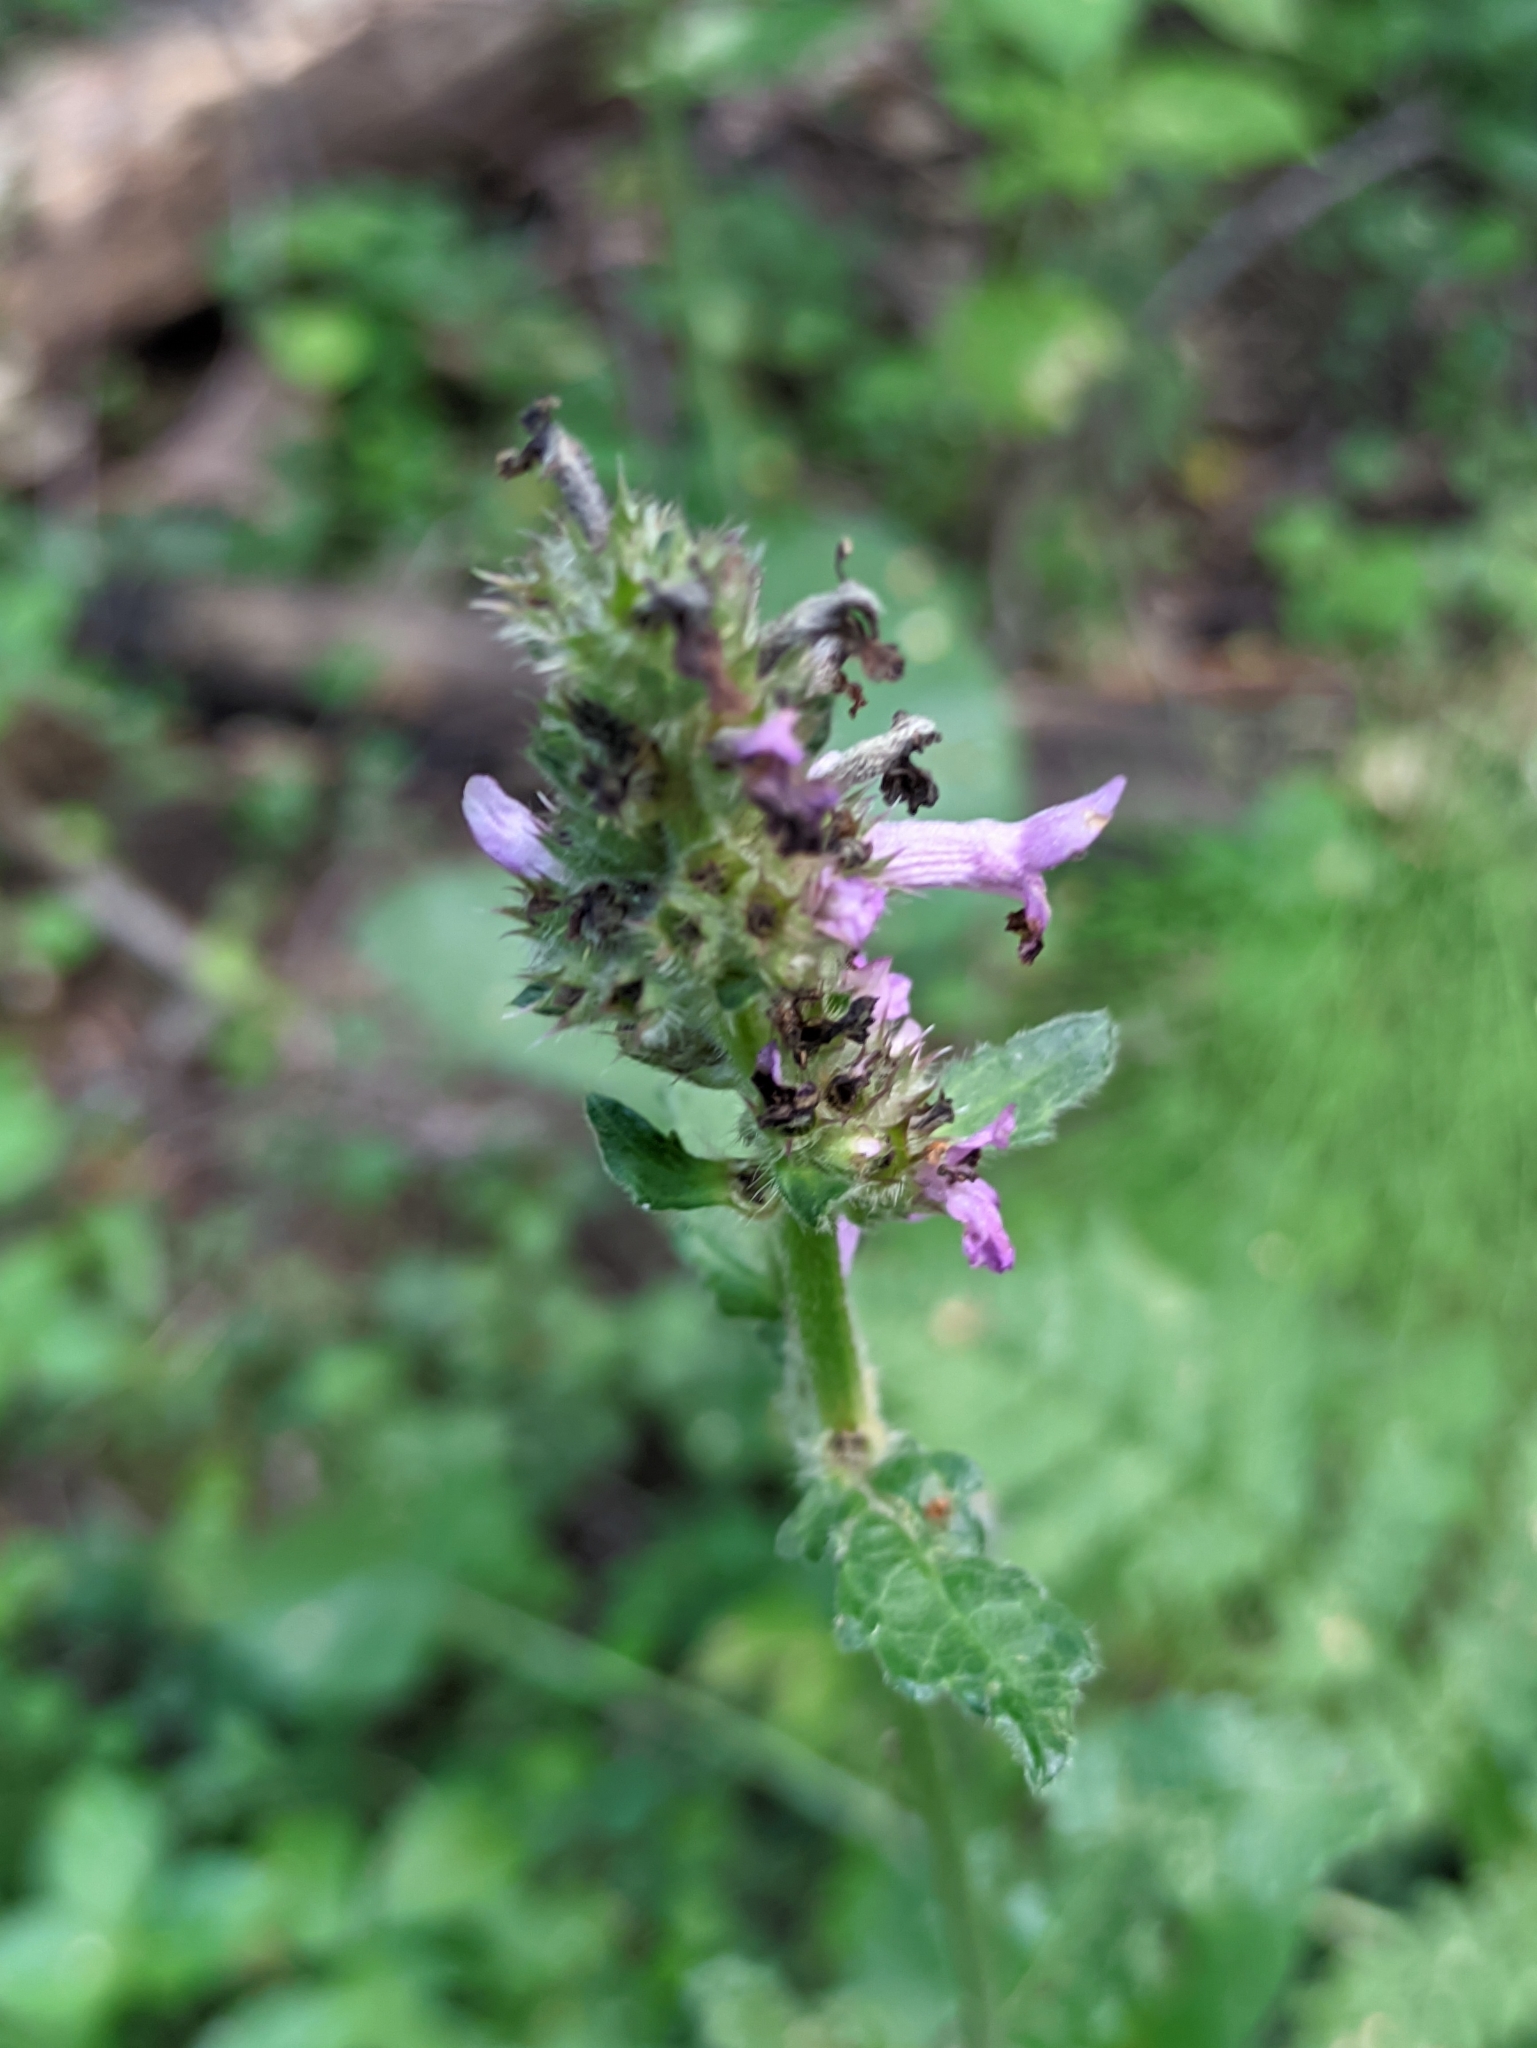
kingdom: Plantae
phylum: Tracheophyta
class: Magnoliopsida
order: Lamiales
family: Lamiaceae
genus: Betonica
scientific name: Betonica officinalis
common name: Bishop's-wort
